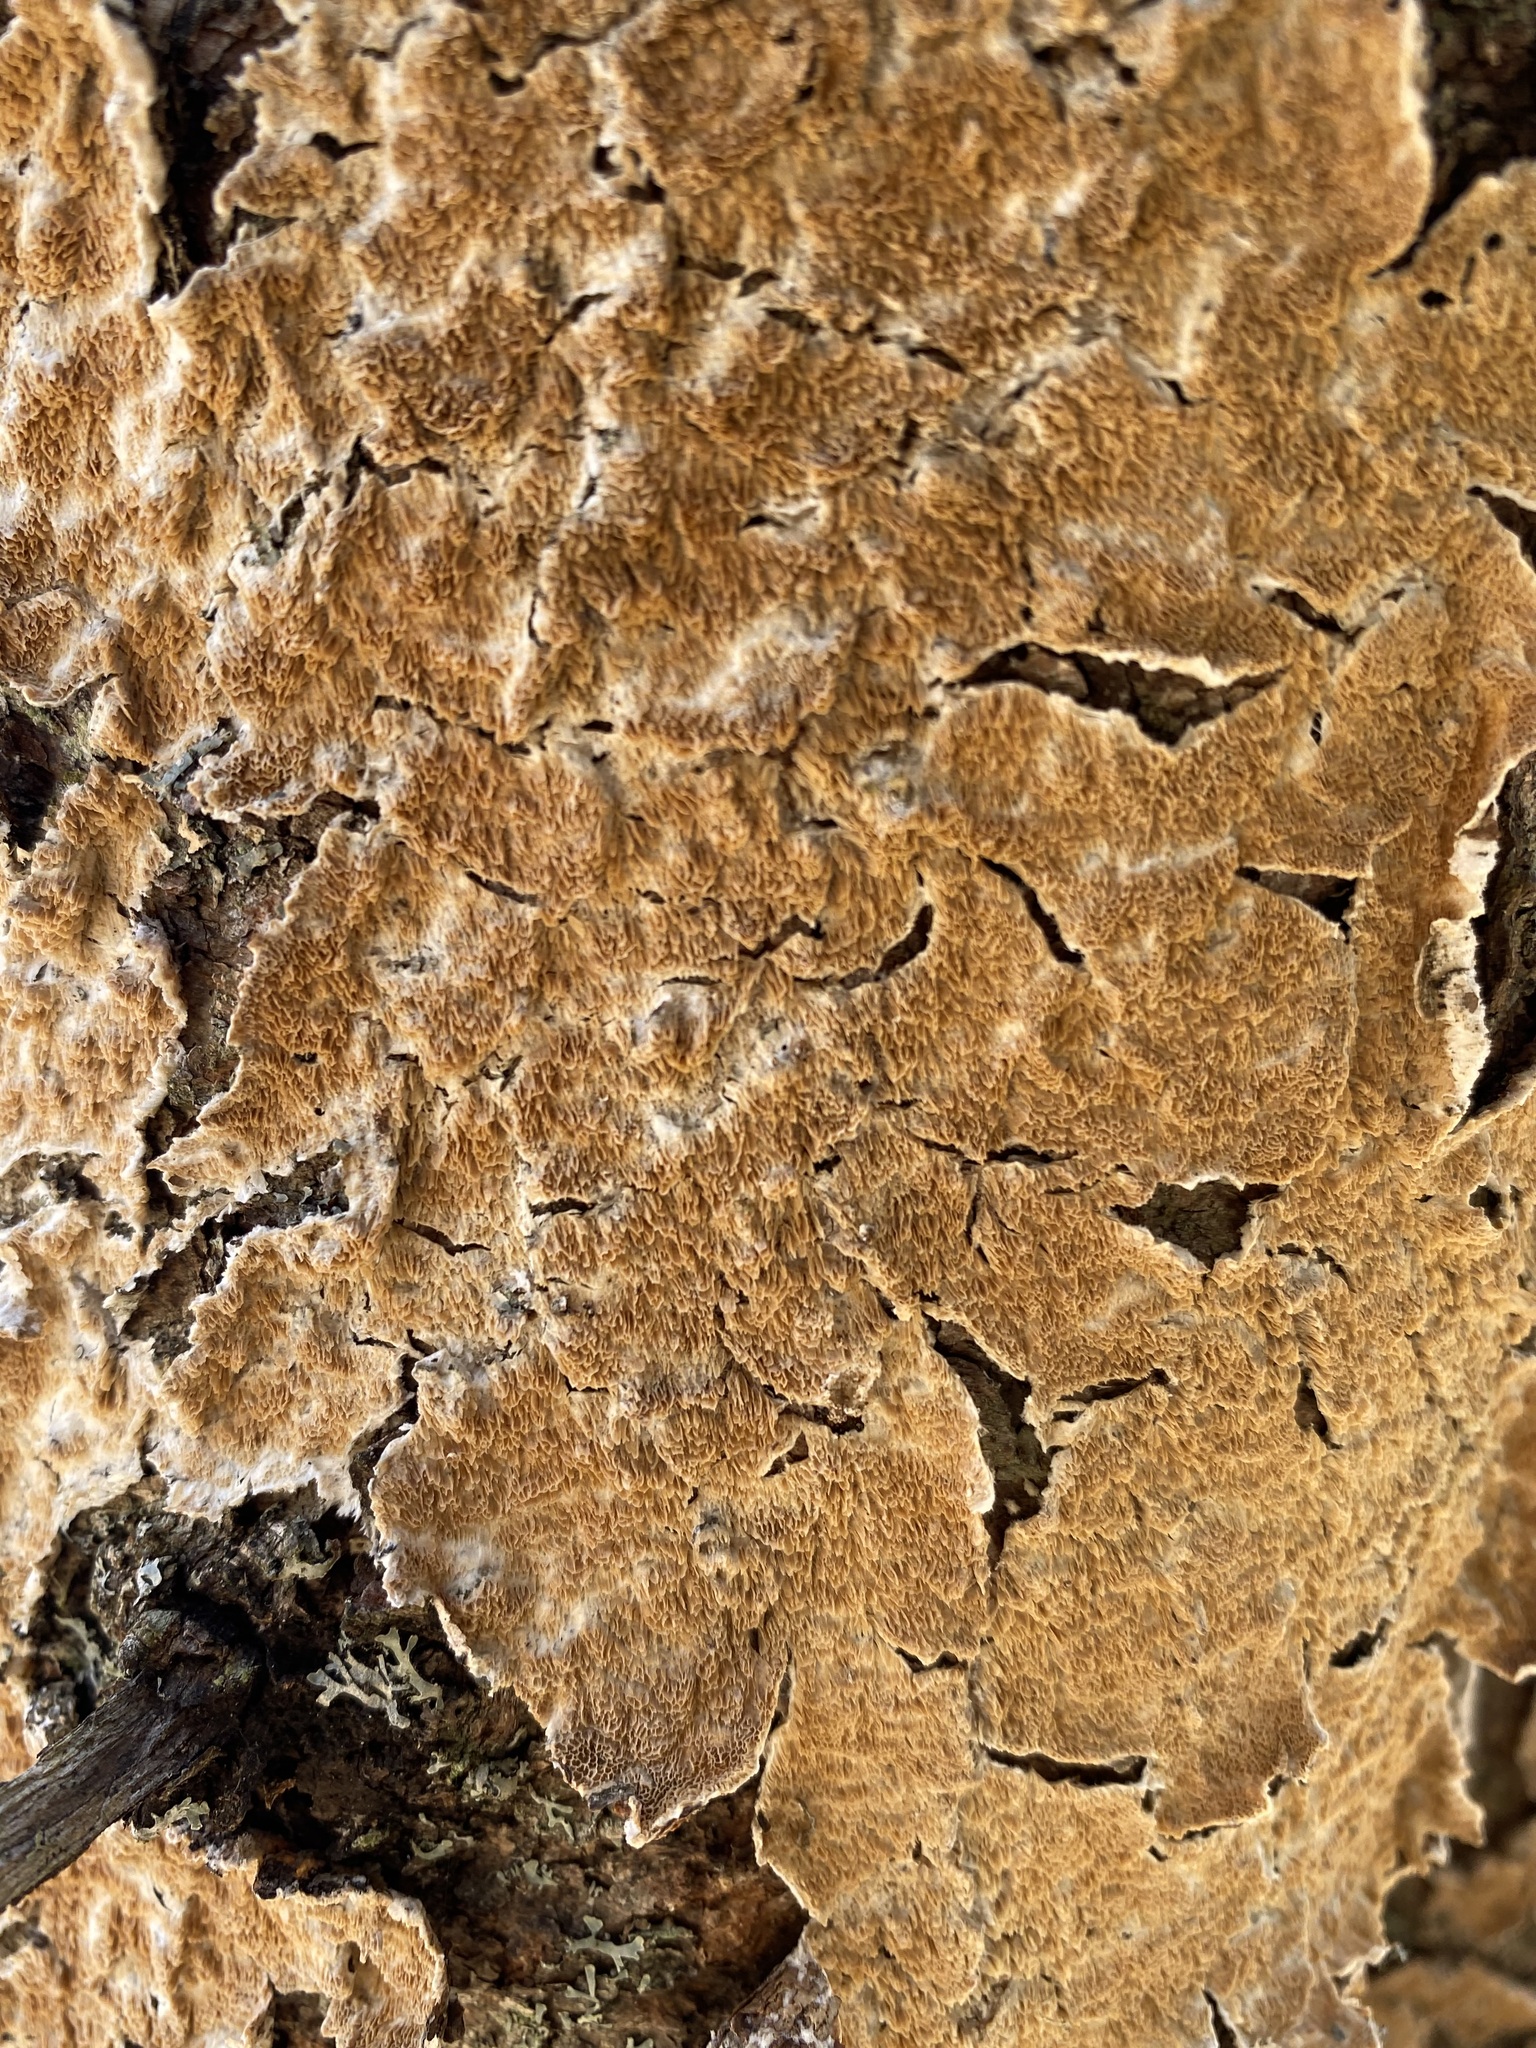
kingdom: Fungi
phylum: Basidiomycota
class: Agaricomycetes
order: Hymenochaetales
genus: Trichaptum
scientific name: Trichaptum abietinum
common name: Purplepore bracket
